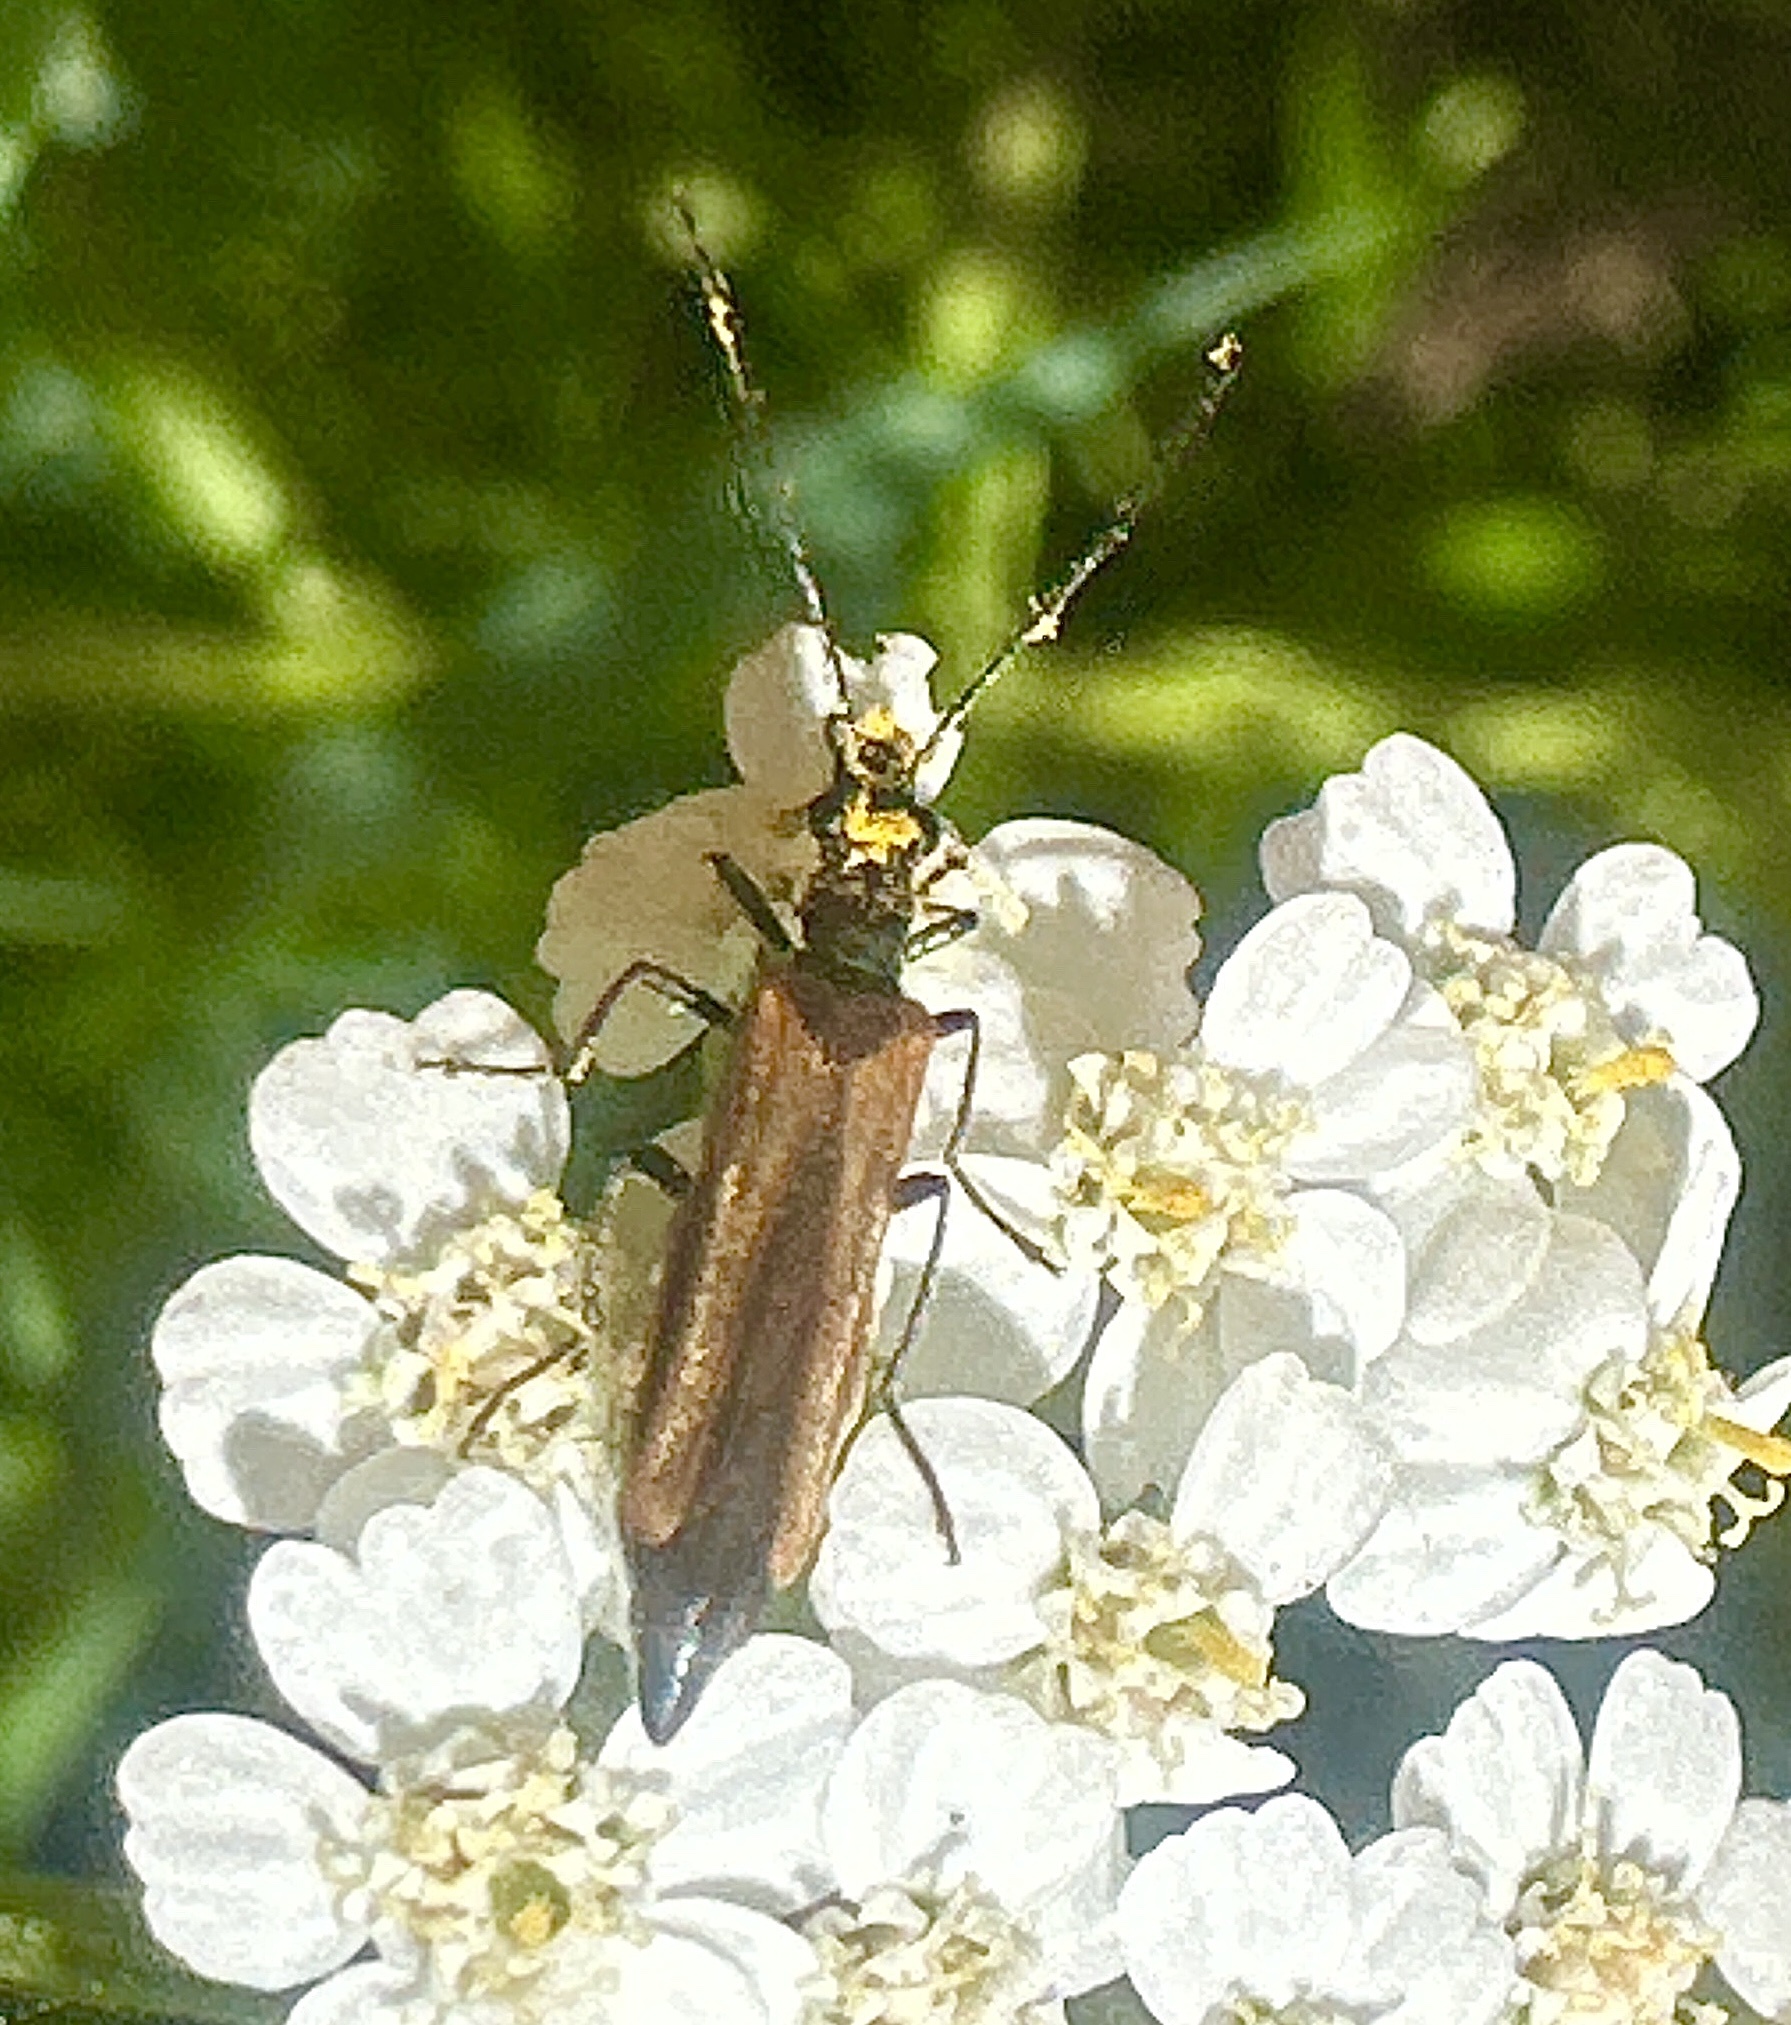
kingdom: Animalia
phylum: Arthropoda
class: Insecta
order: Coleoptera
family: Oedemeridae
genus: Oedemera
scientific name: Oedemera femorata
